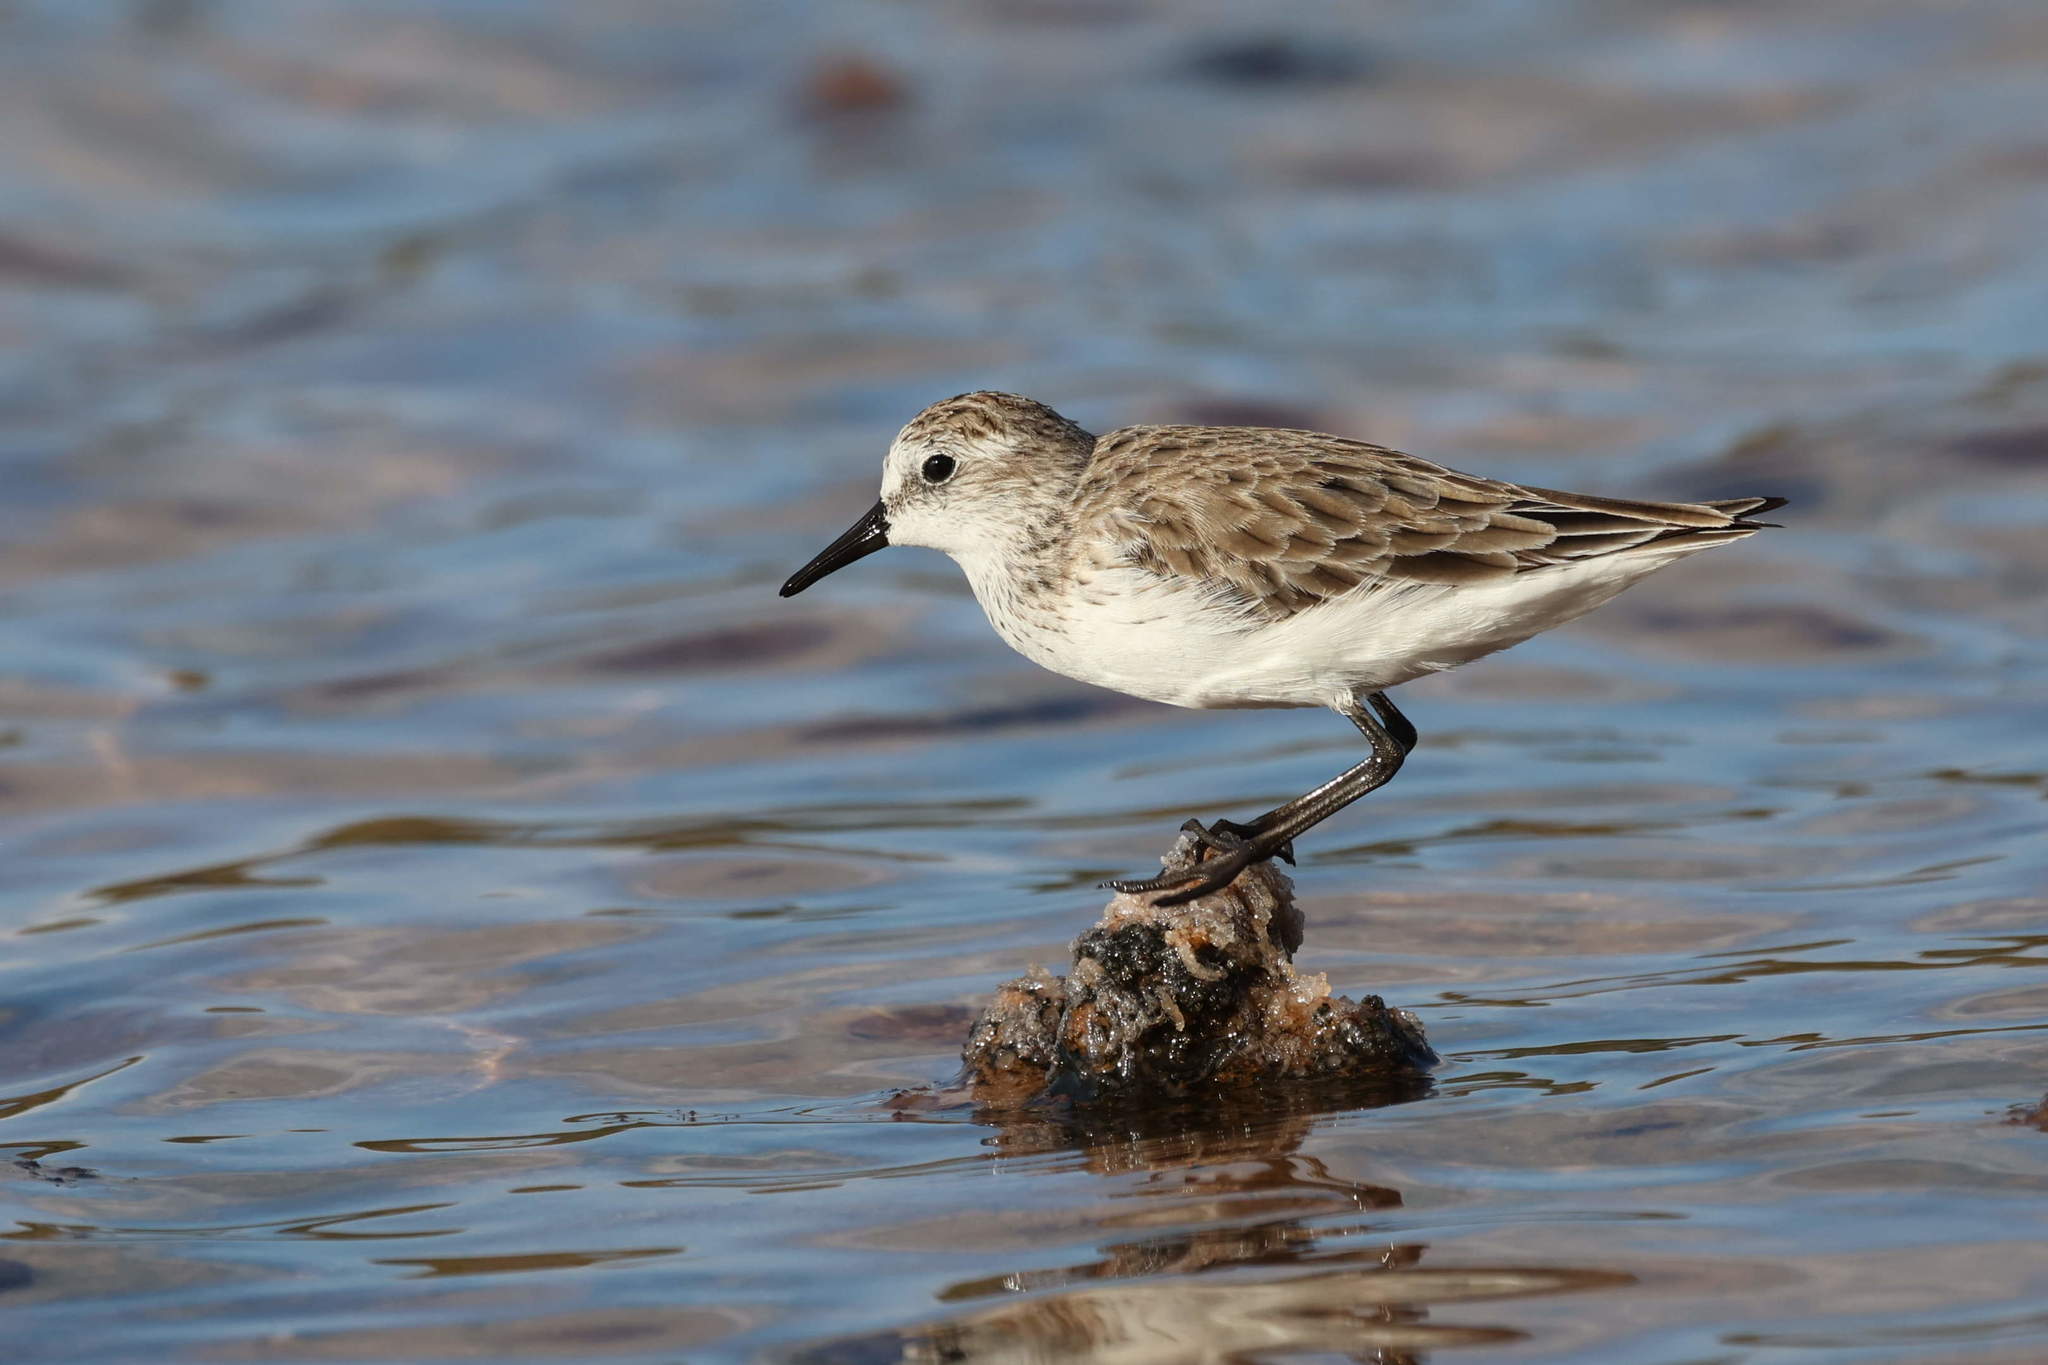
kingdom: Animalia
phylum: Chordata
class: Aves
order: Charadriiformes
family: Scolopacidae
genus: Calidris
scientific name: Calidris pusilla
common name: Semipalmated sandpiper
